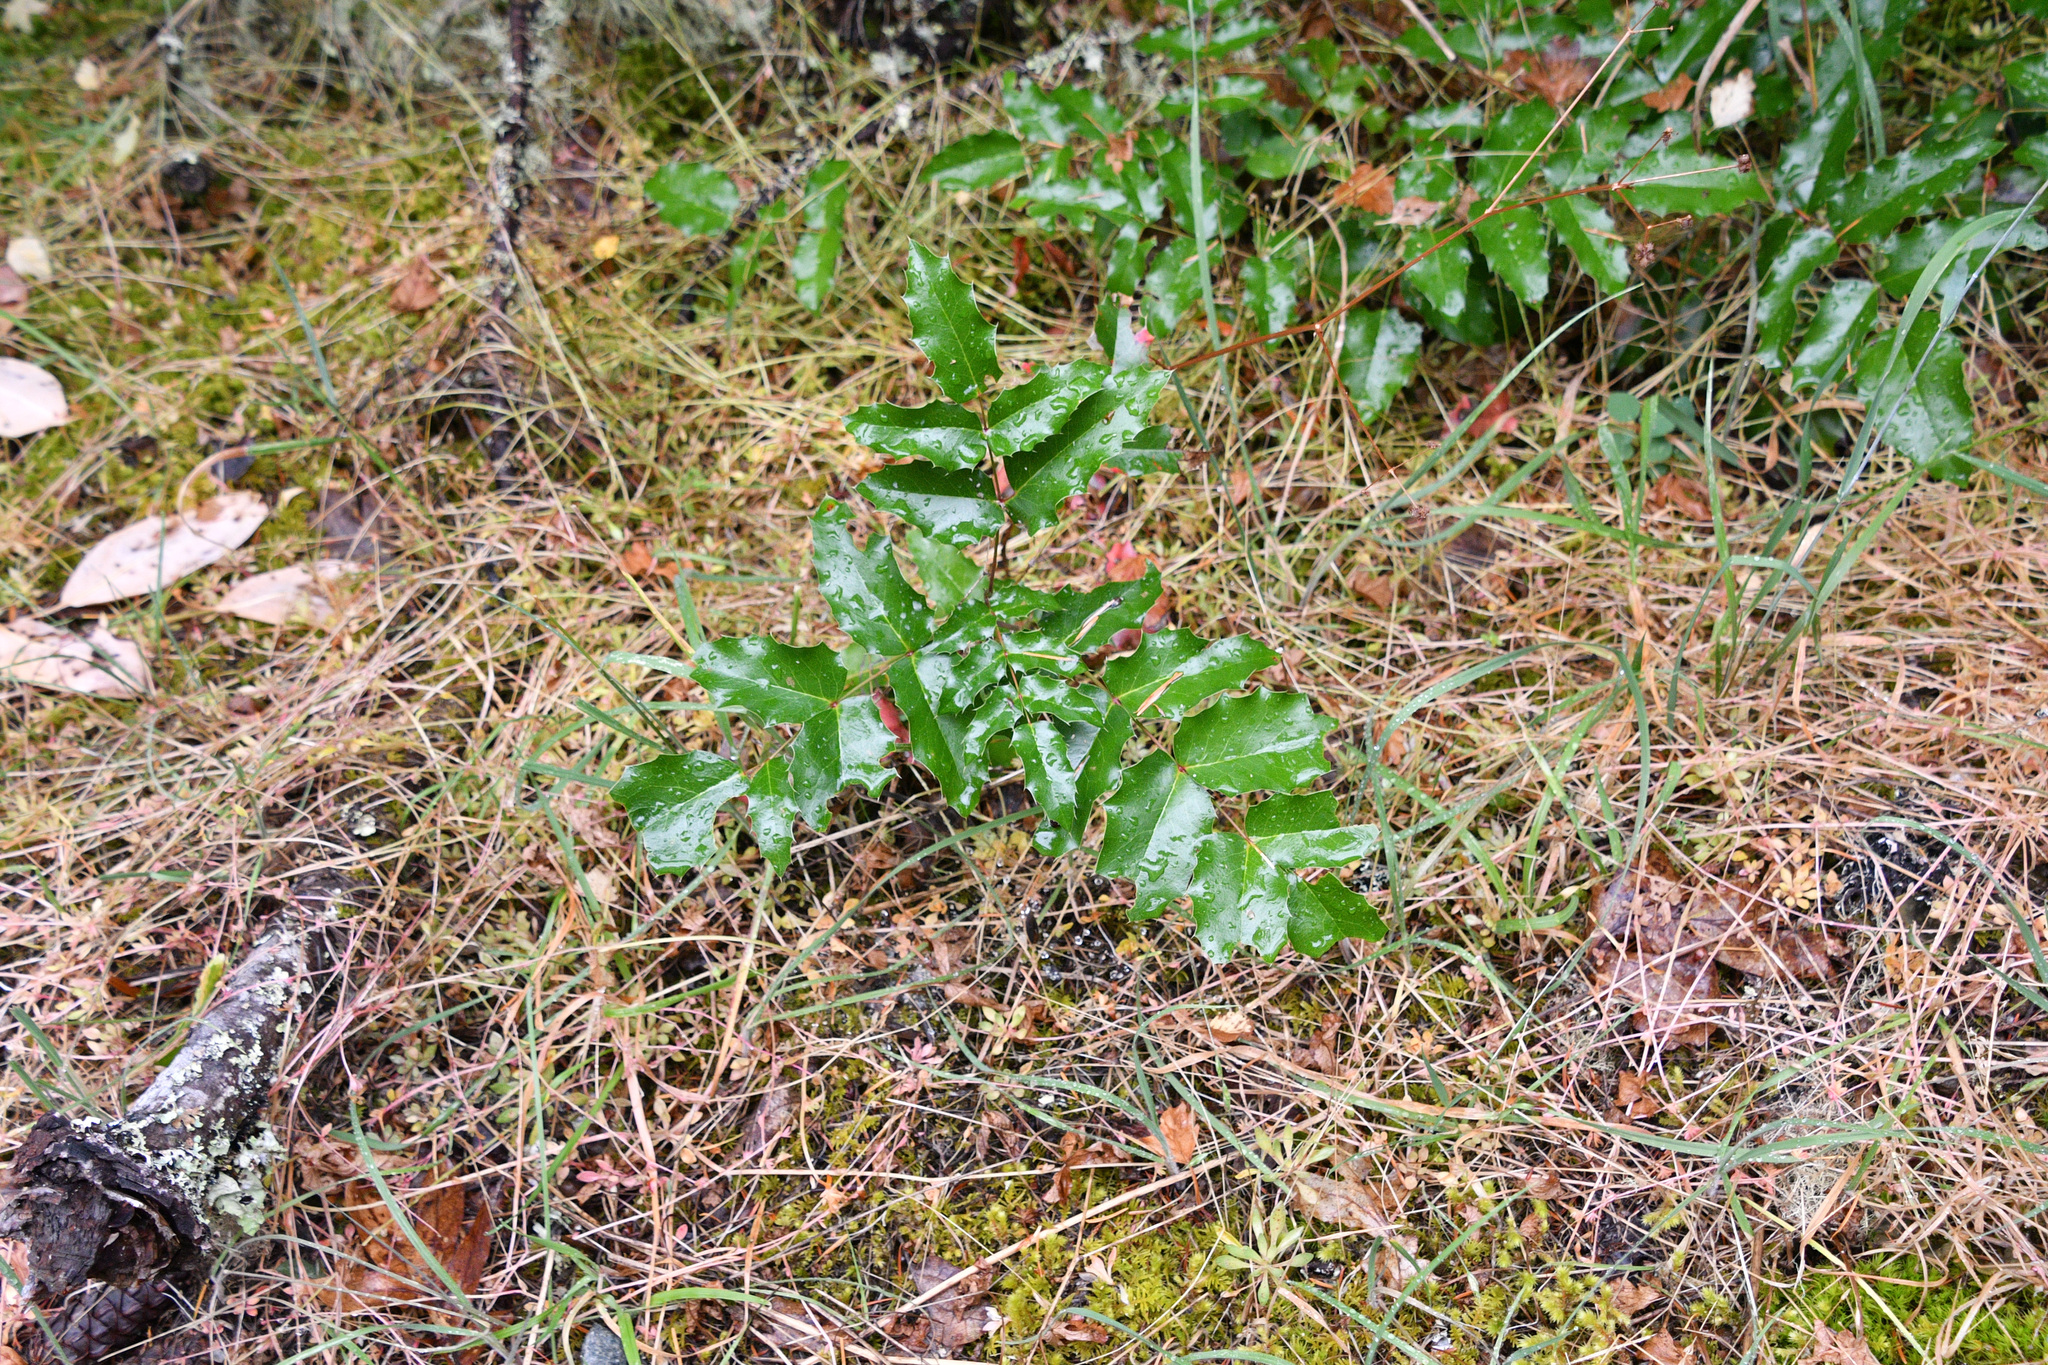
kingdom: Plantae
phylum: Tracheophyta
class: Magnoliopsida
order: Ranunculales
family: Berberidaceae
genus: Mahonia
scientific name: Mahonia aquifolium
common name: Oregon-grape
